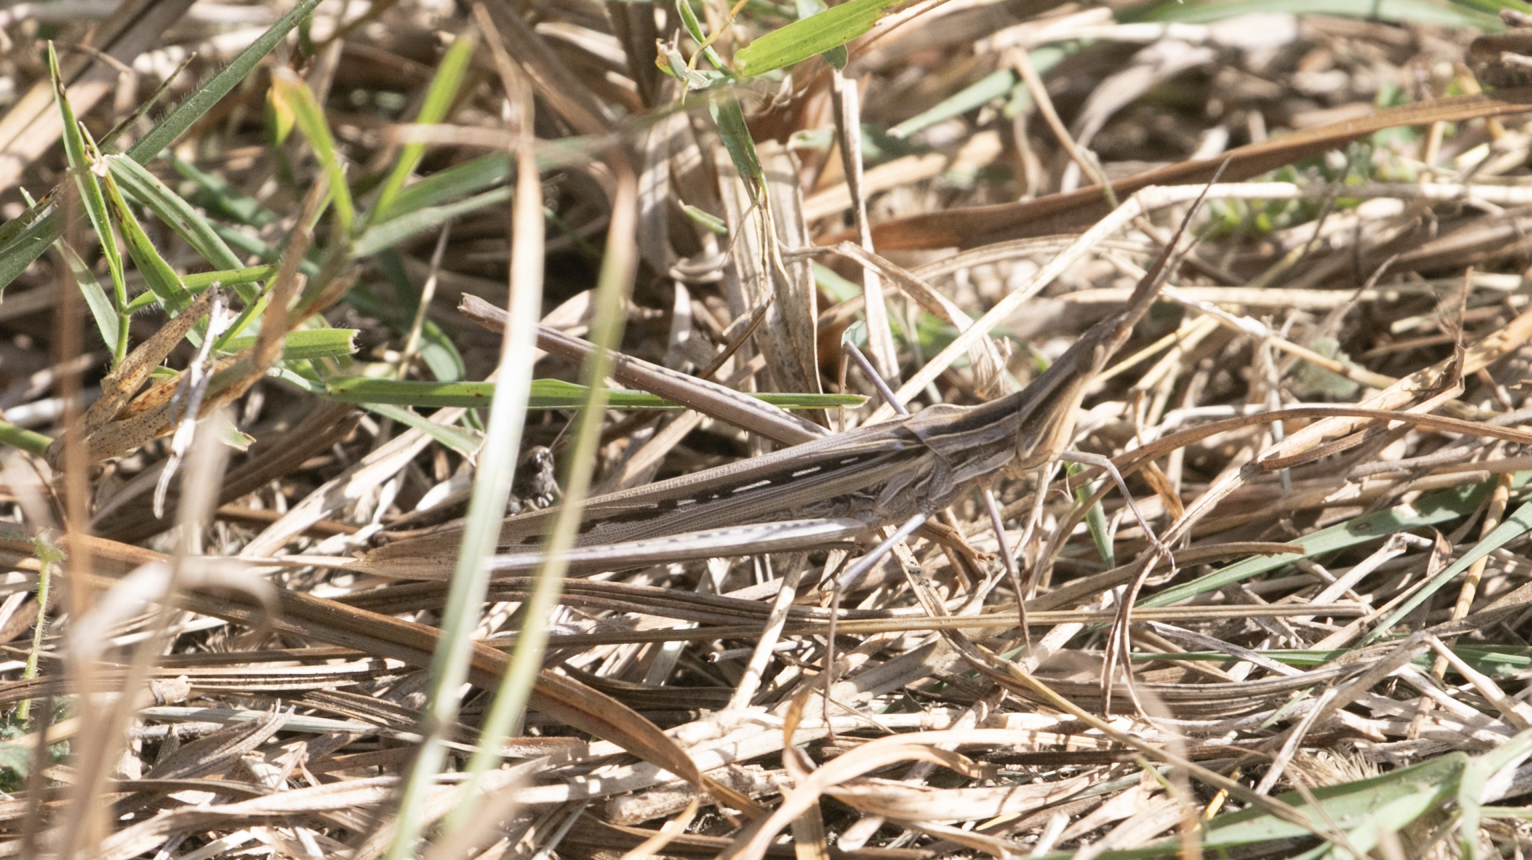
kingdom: Animalia
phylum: Arthropoda
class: Insecta
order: Orthoptera
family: Acrididae
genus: Acrida
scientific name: Acrida ungarica
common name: Common cone-headed grasshopper
